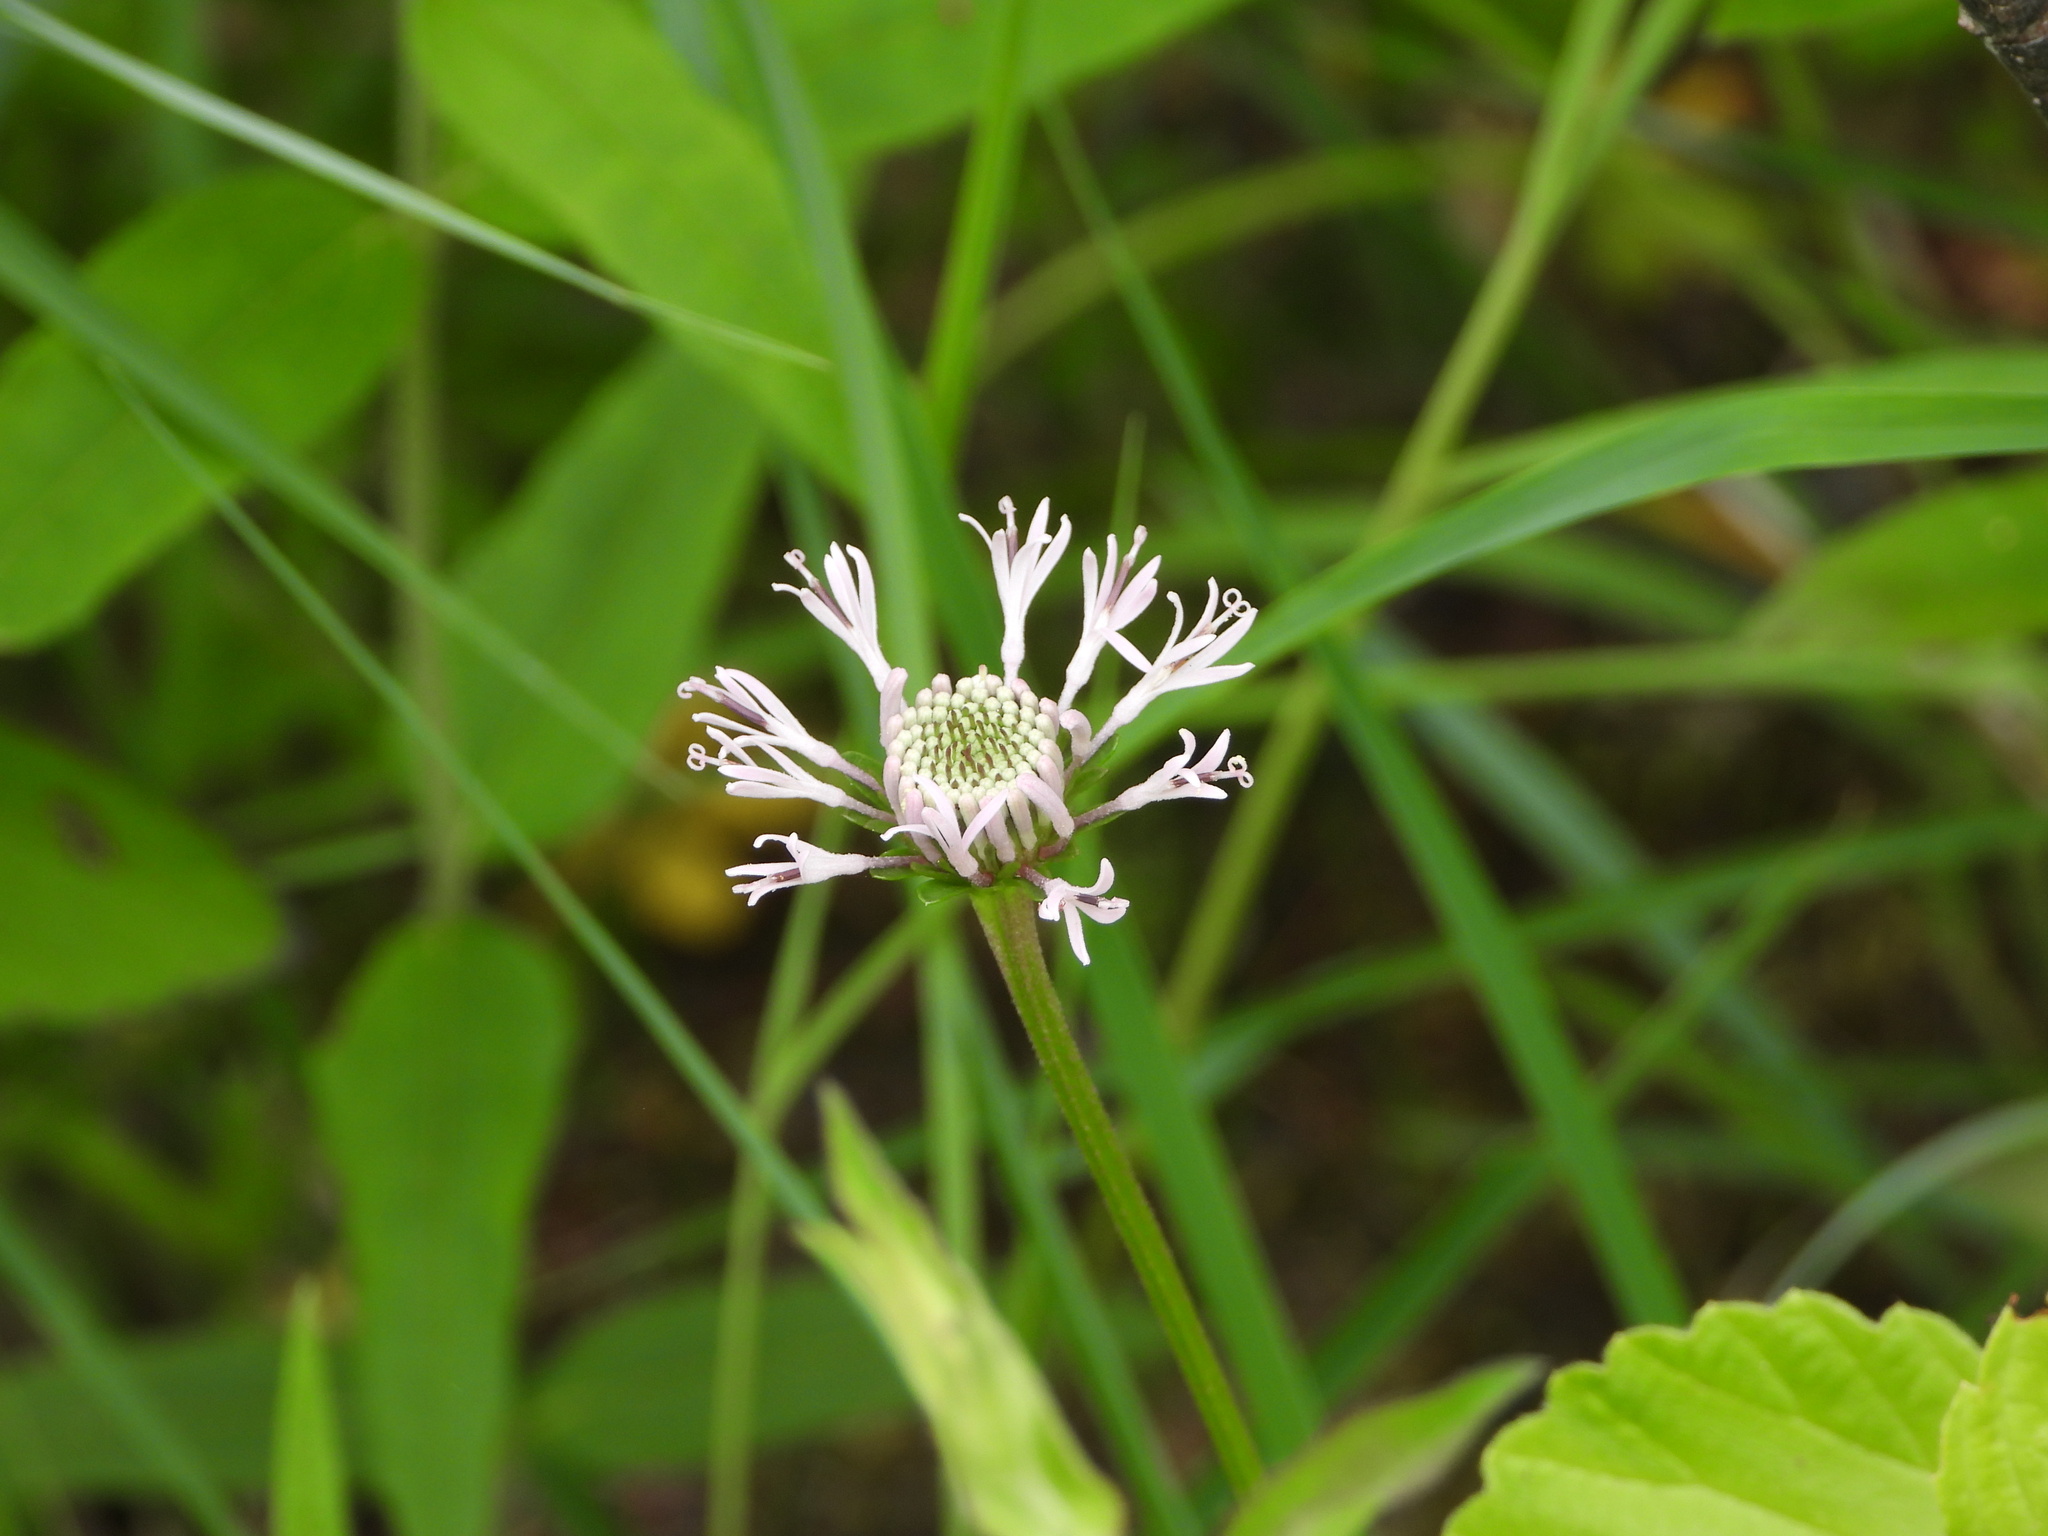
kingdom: Plantae
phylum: Tracheophyta
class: Magnoliopsida
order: Asterales
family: Asteraceae
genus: Marshallia
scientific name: Marshallia pulchra
